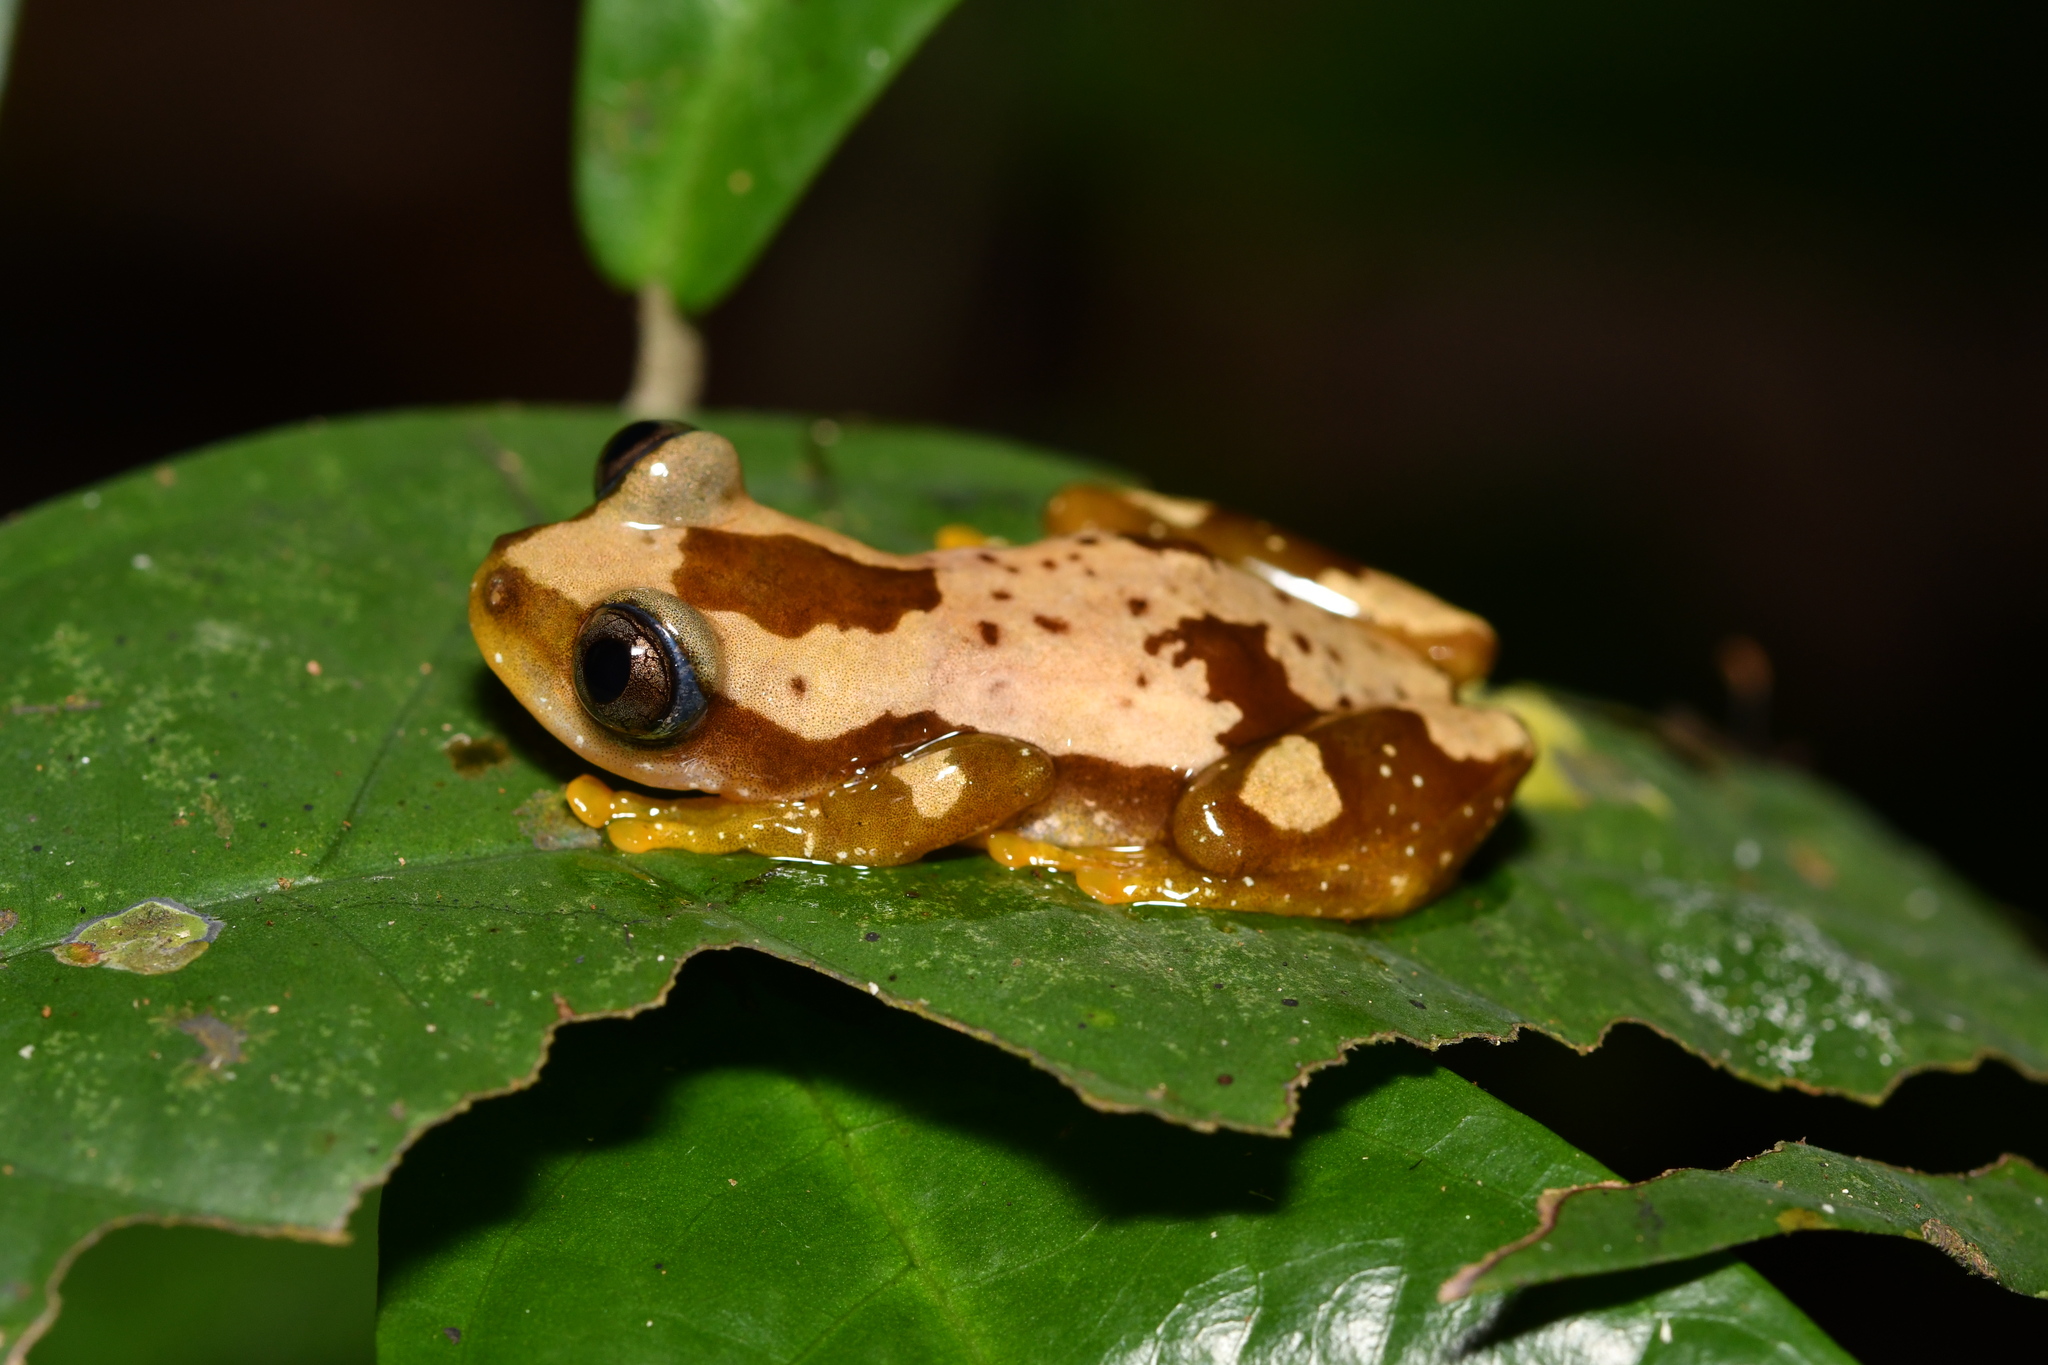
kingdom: Animalia
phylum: Chordata
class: Amphibia
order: Anura
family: Hyperoliidae
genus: Afrixalus
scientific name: Afrixalus nigeriensis
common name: Nigeria banana frog
